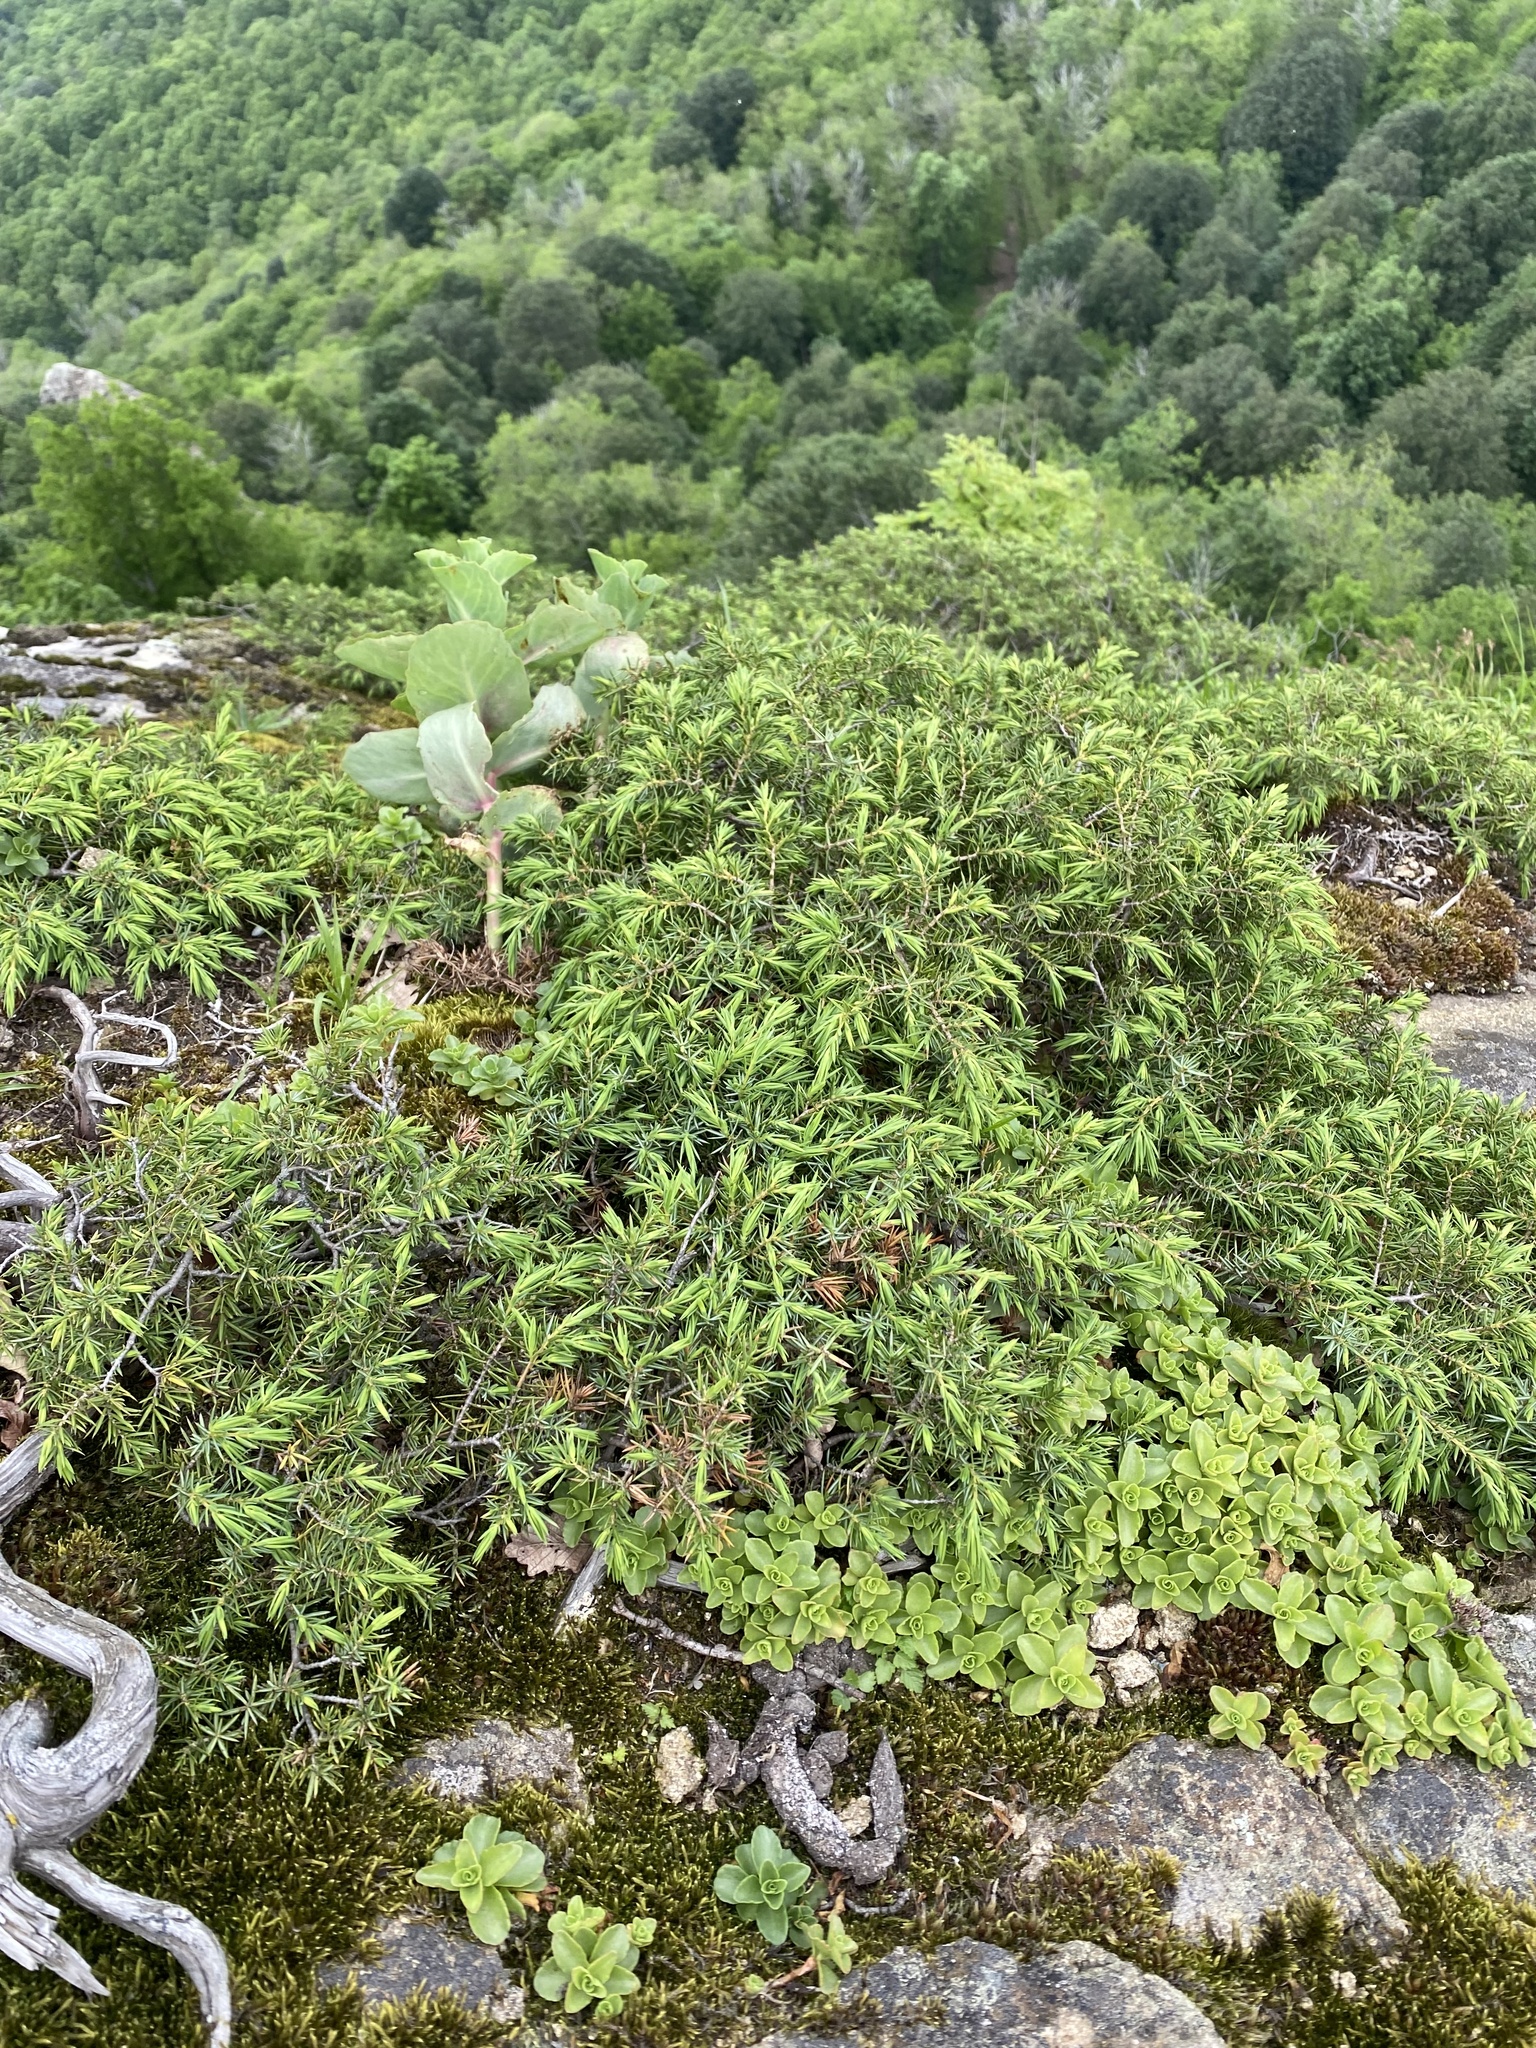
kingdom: Plantae
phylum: Tracheophyta
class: Pinopsida
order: Pinales
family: Cupressaceae
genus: Juniperus
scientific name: Juniperus communis
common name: Common juniper
